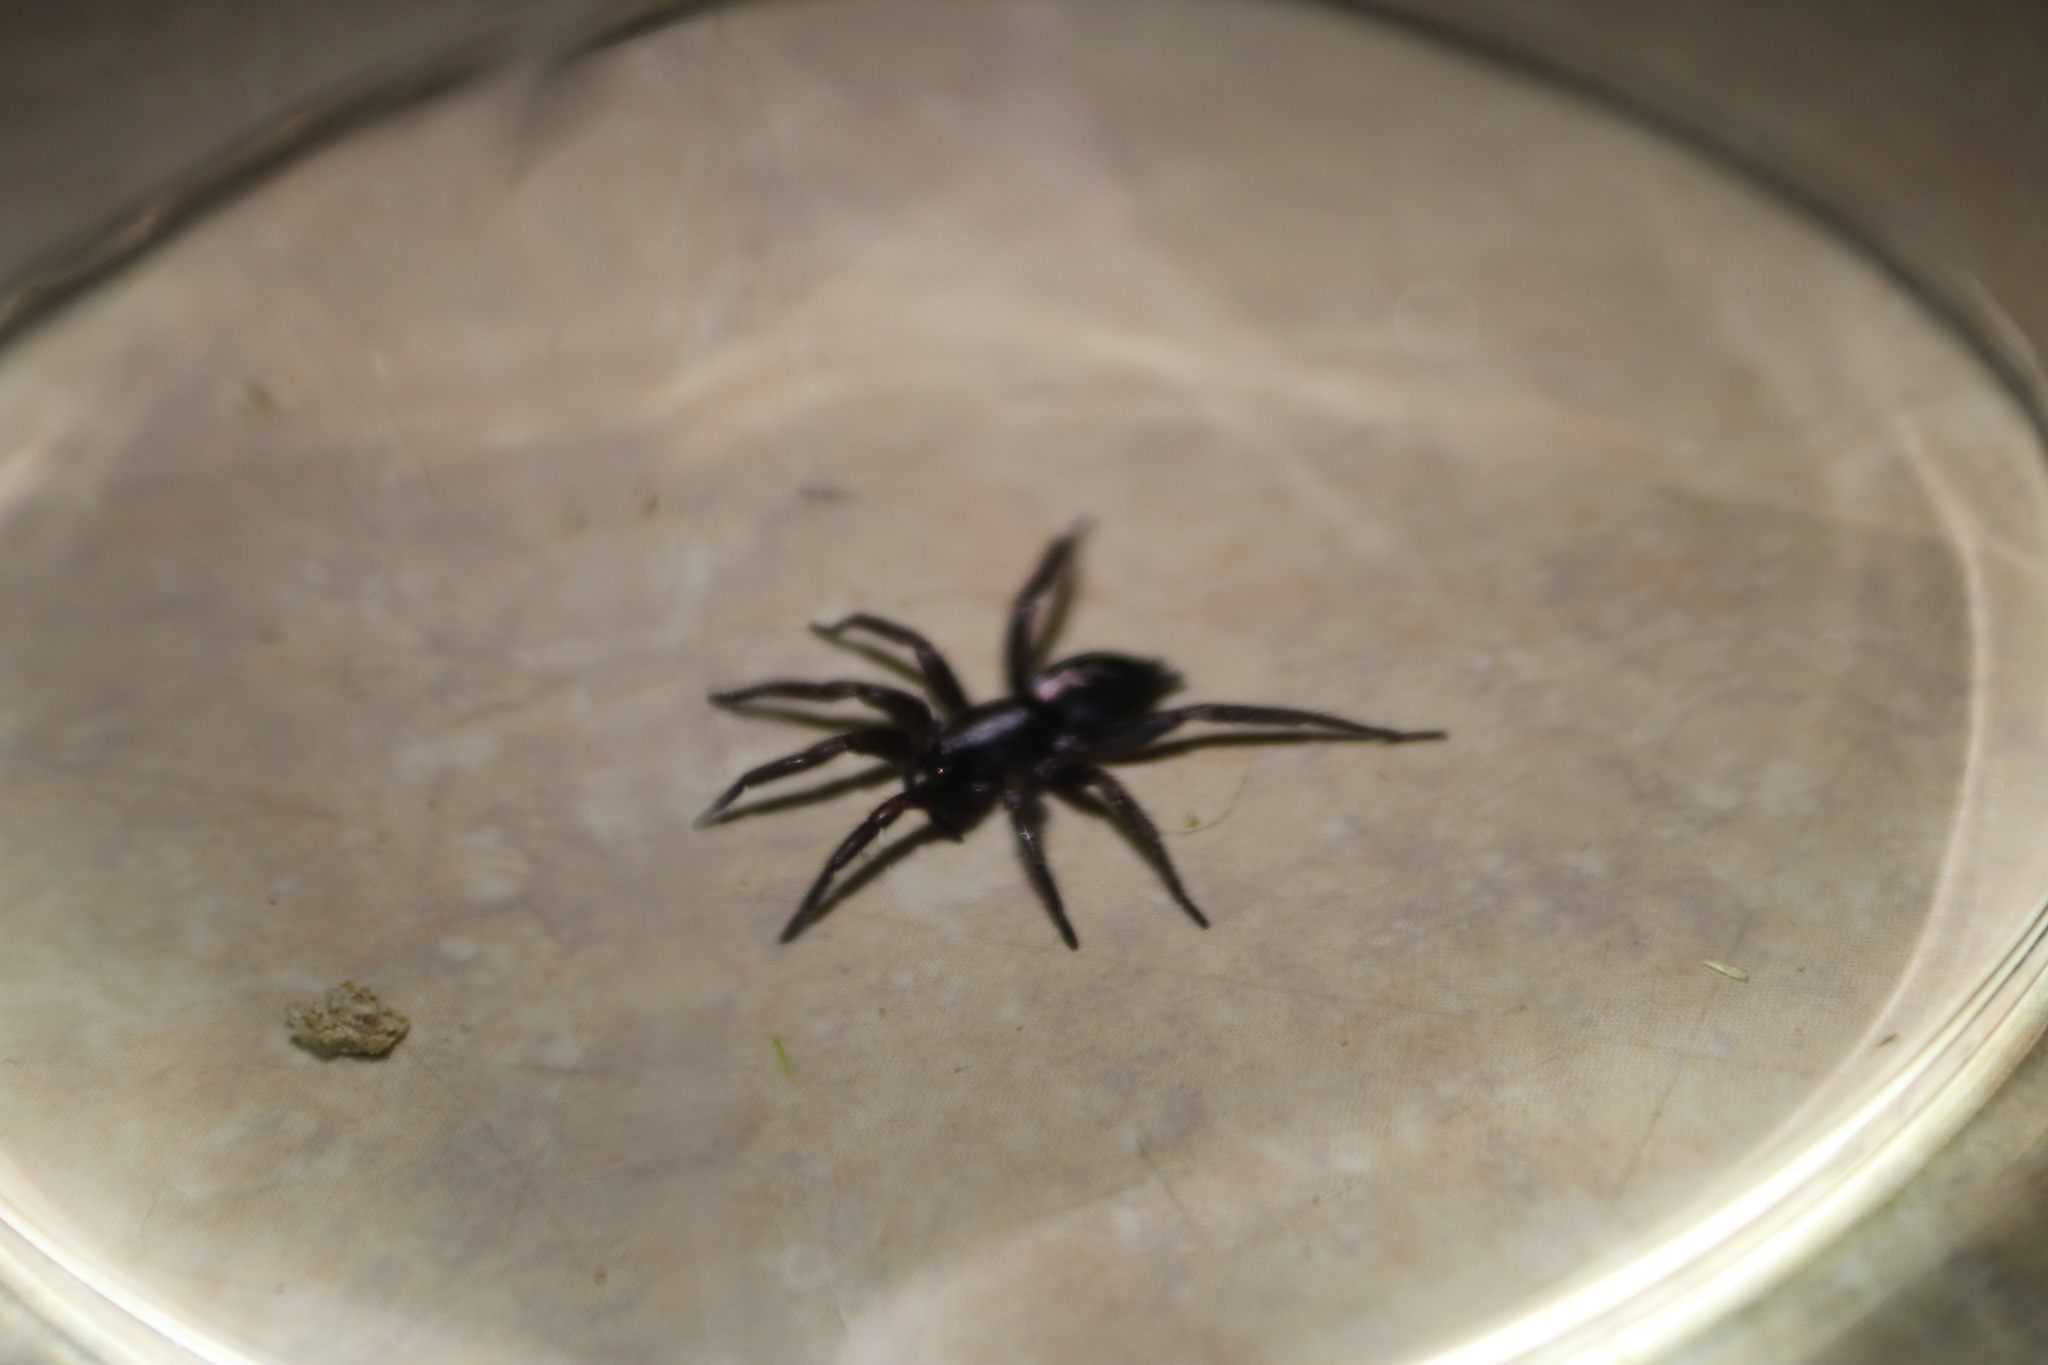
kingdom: Animalia
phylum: Arthropoda
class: Arachnida
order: Araneae
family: Gnaphosidae
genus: Herpyllus
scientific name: Herpyllus ecclesiasticus
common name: Eastern parson spider
